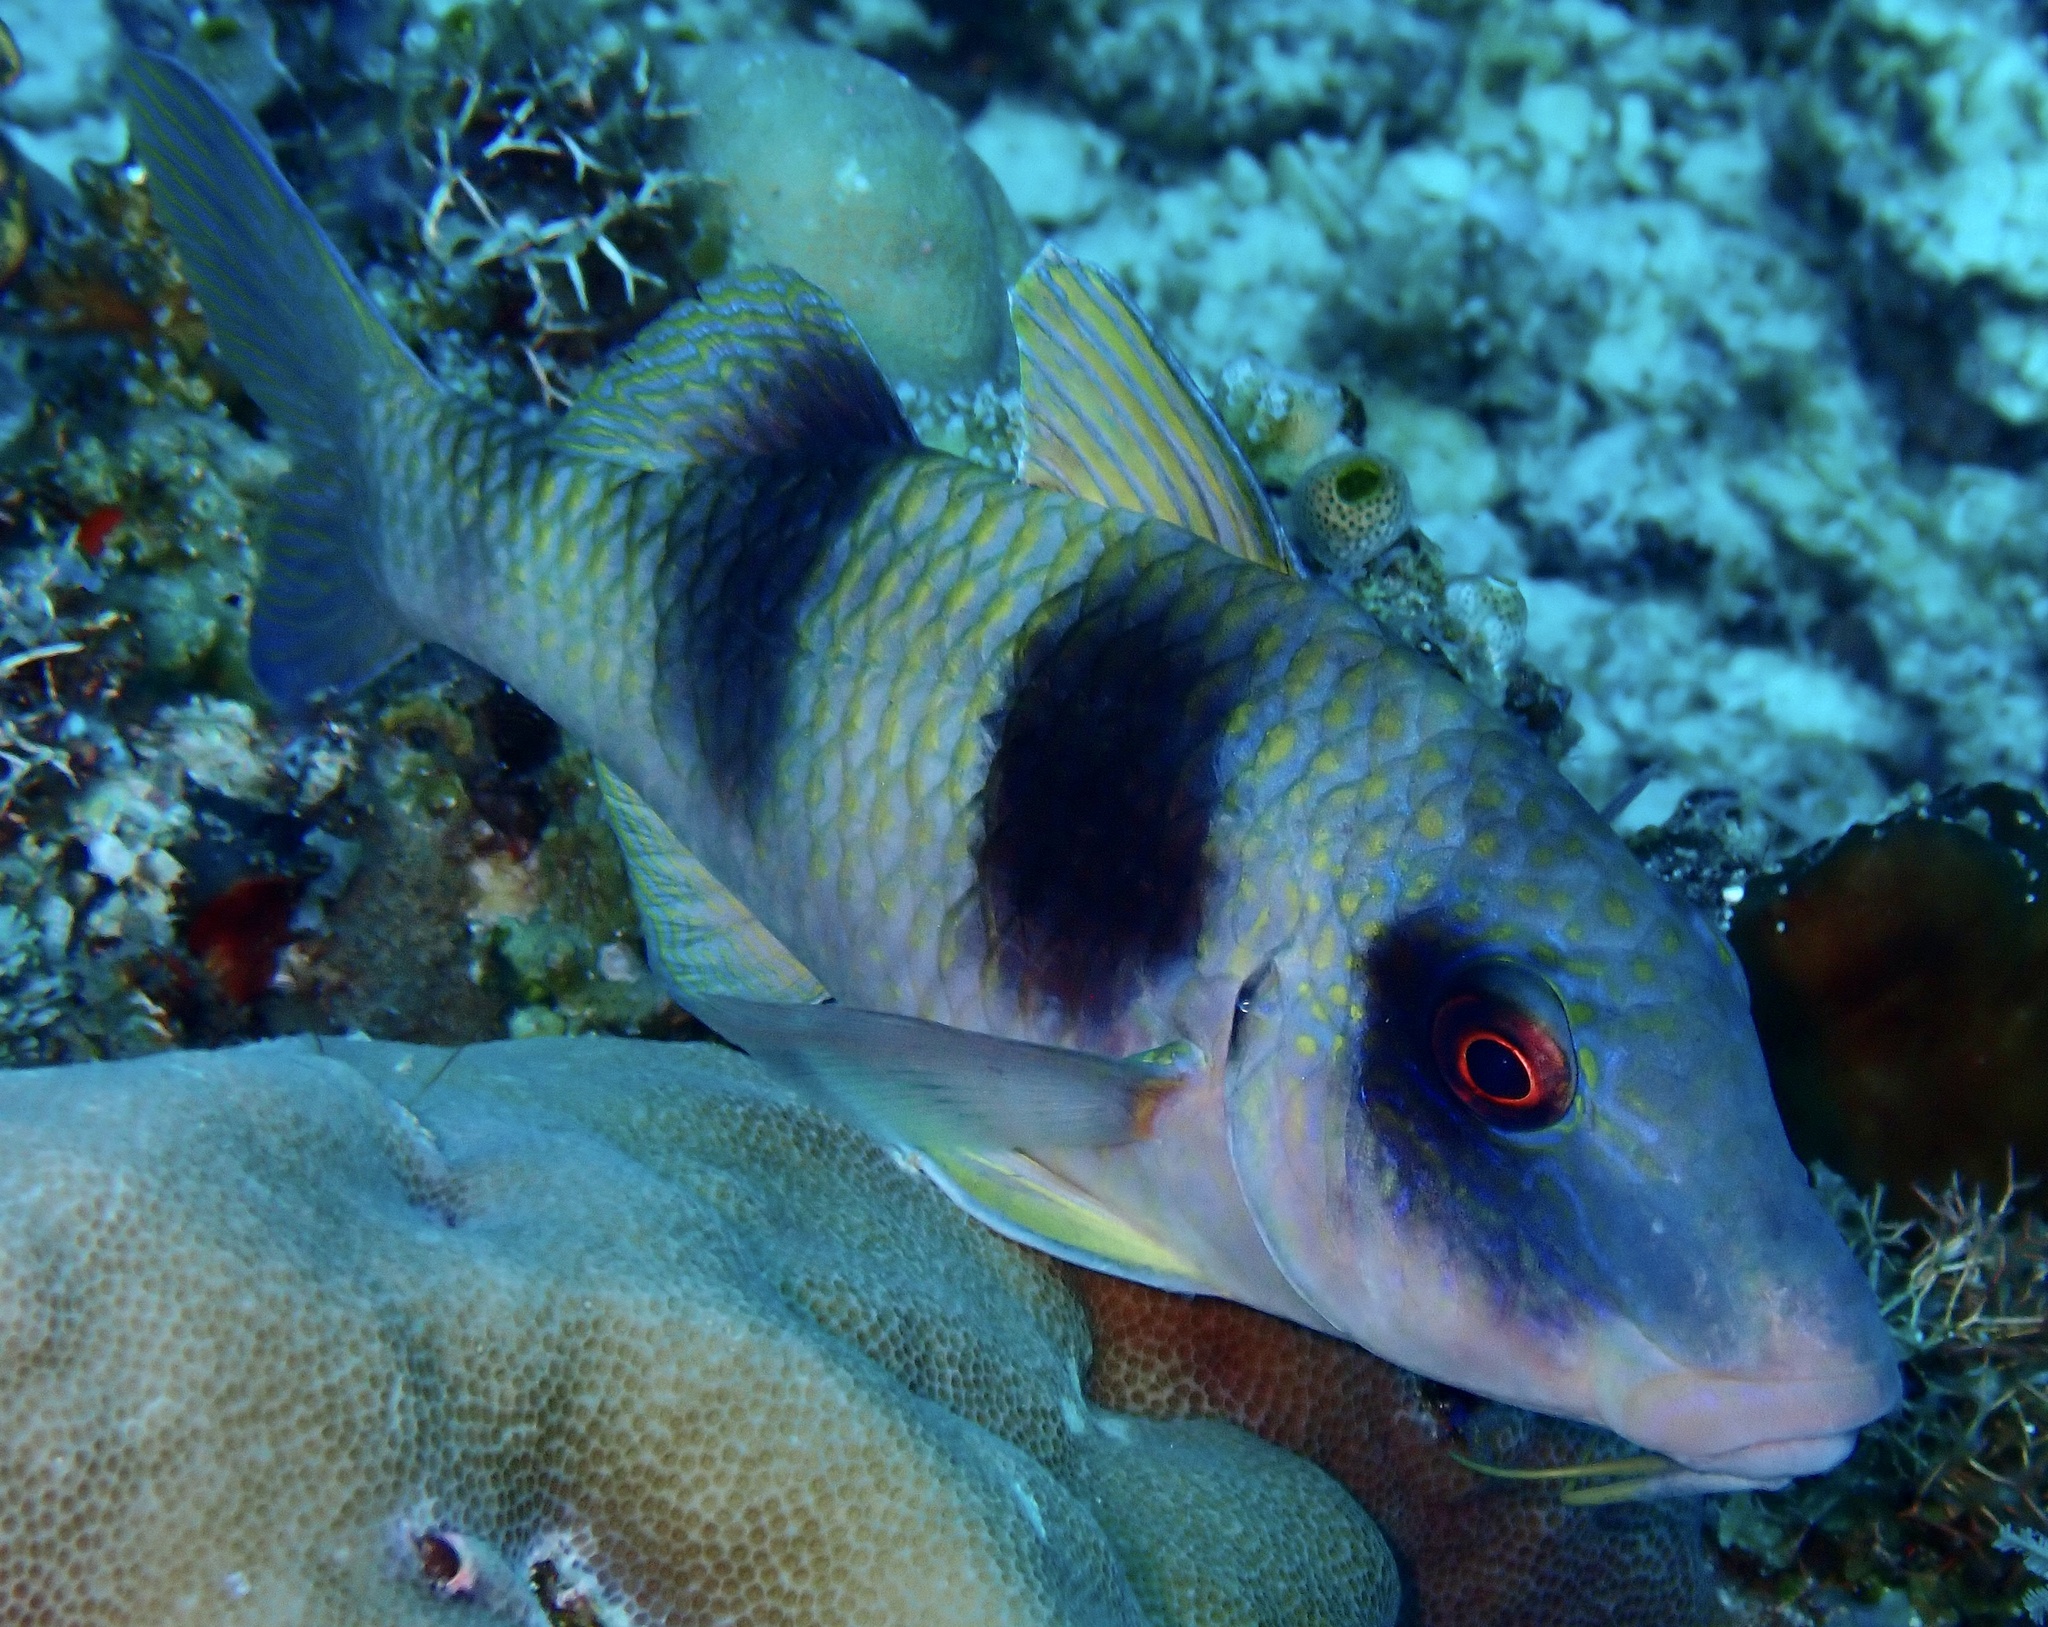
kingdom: Animalia
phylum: Chordata
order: Perciformes
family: Mullidae
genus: Parupeneus
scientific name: Parupeneus crassilabris
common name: Doublebar goatfish
